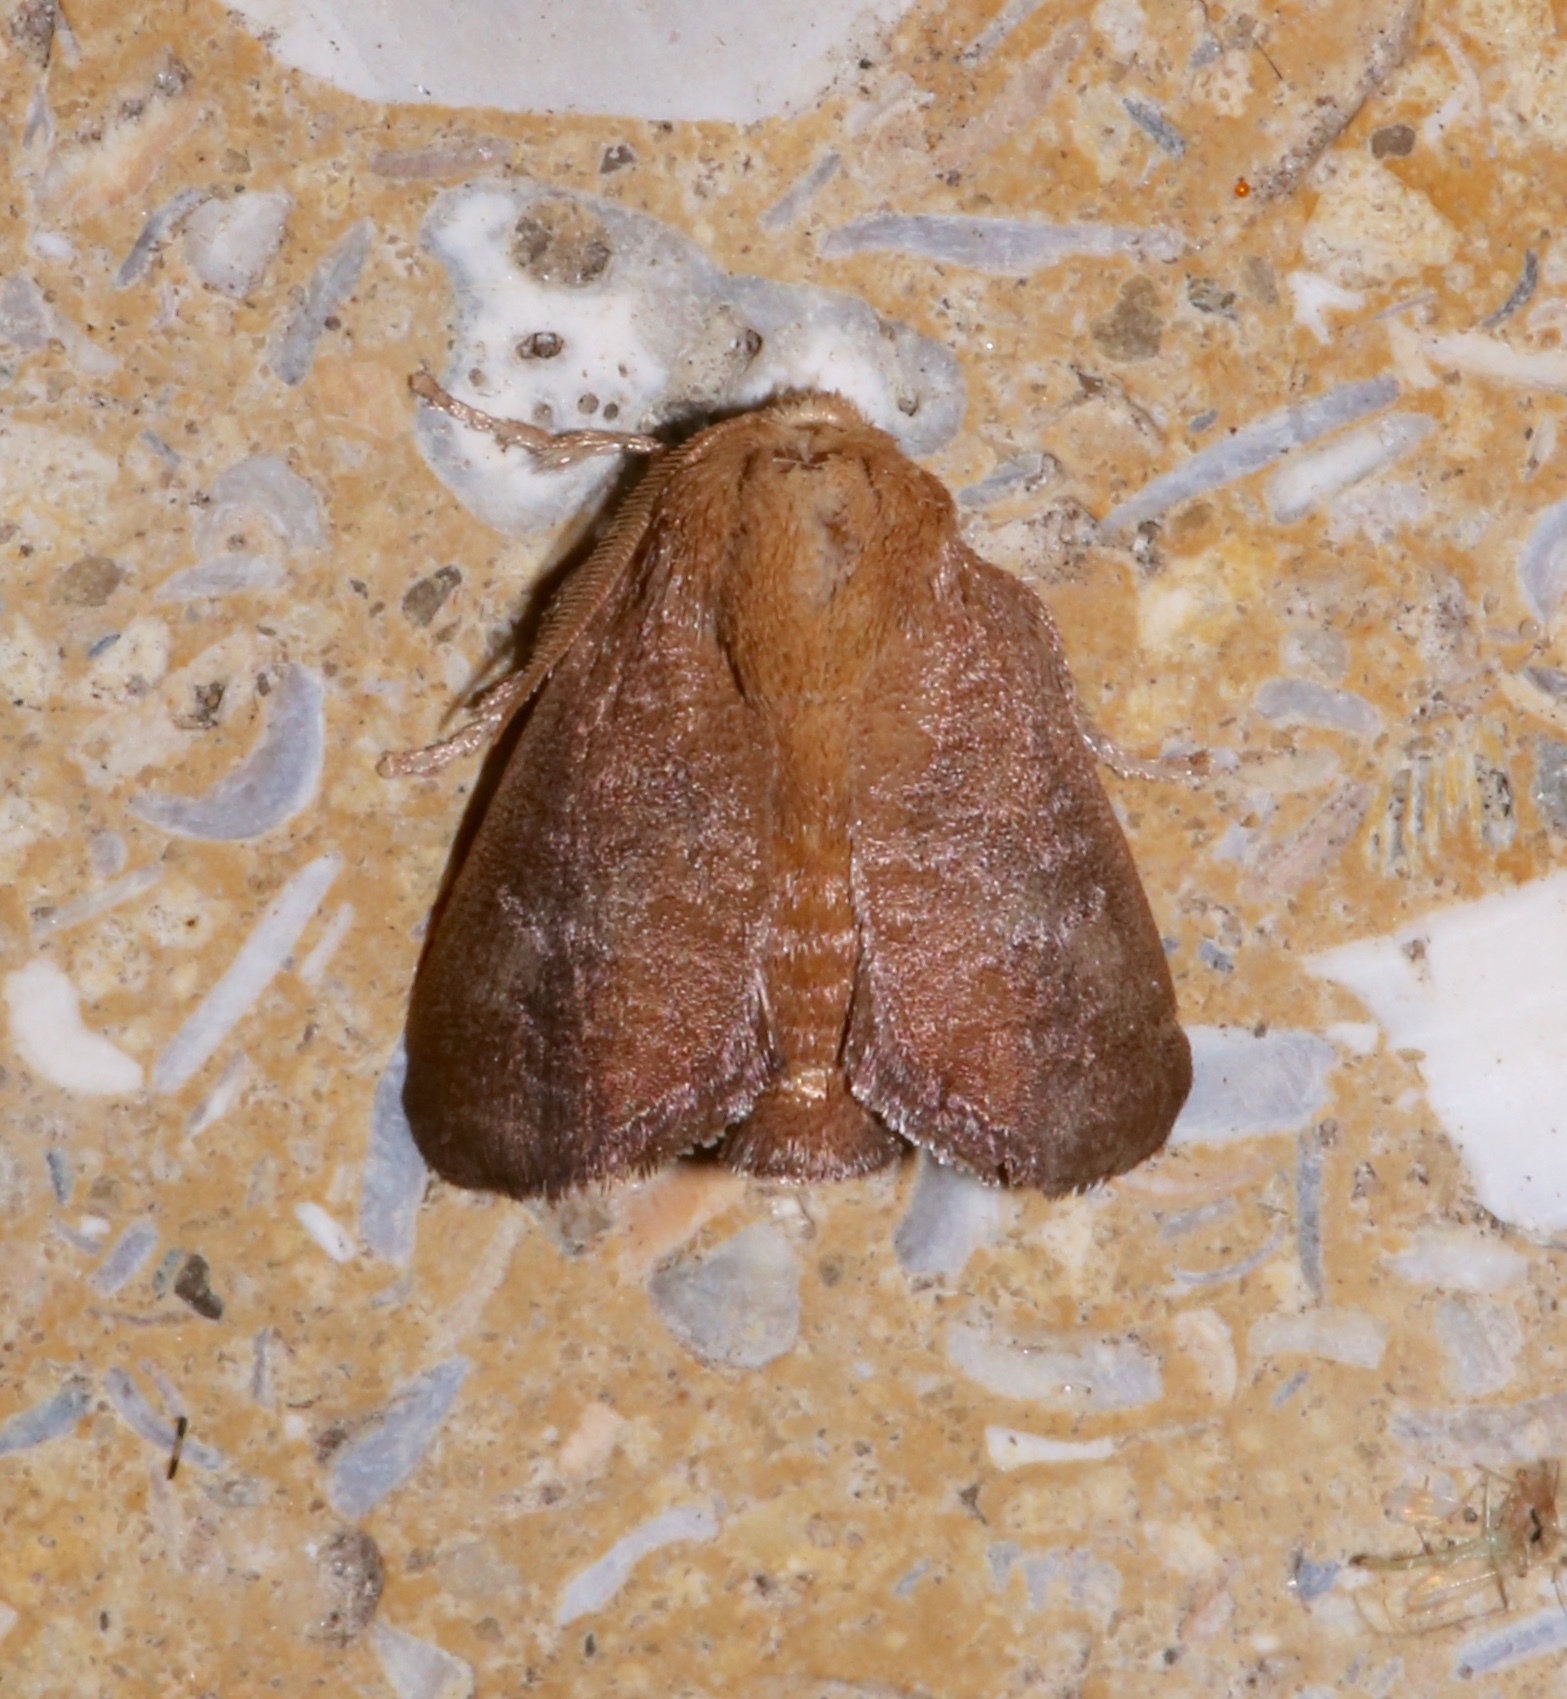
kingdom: Animalia
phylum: Arthropoda
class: Insecta
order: Lepidoptera
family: Limacodidae
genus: Isa
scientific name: Isa textula
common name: Crowned slug moth
